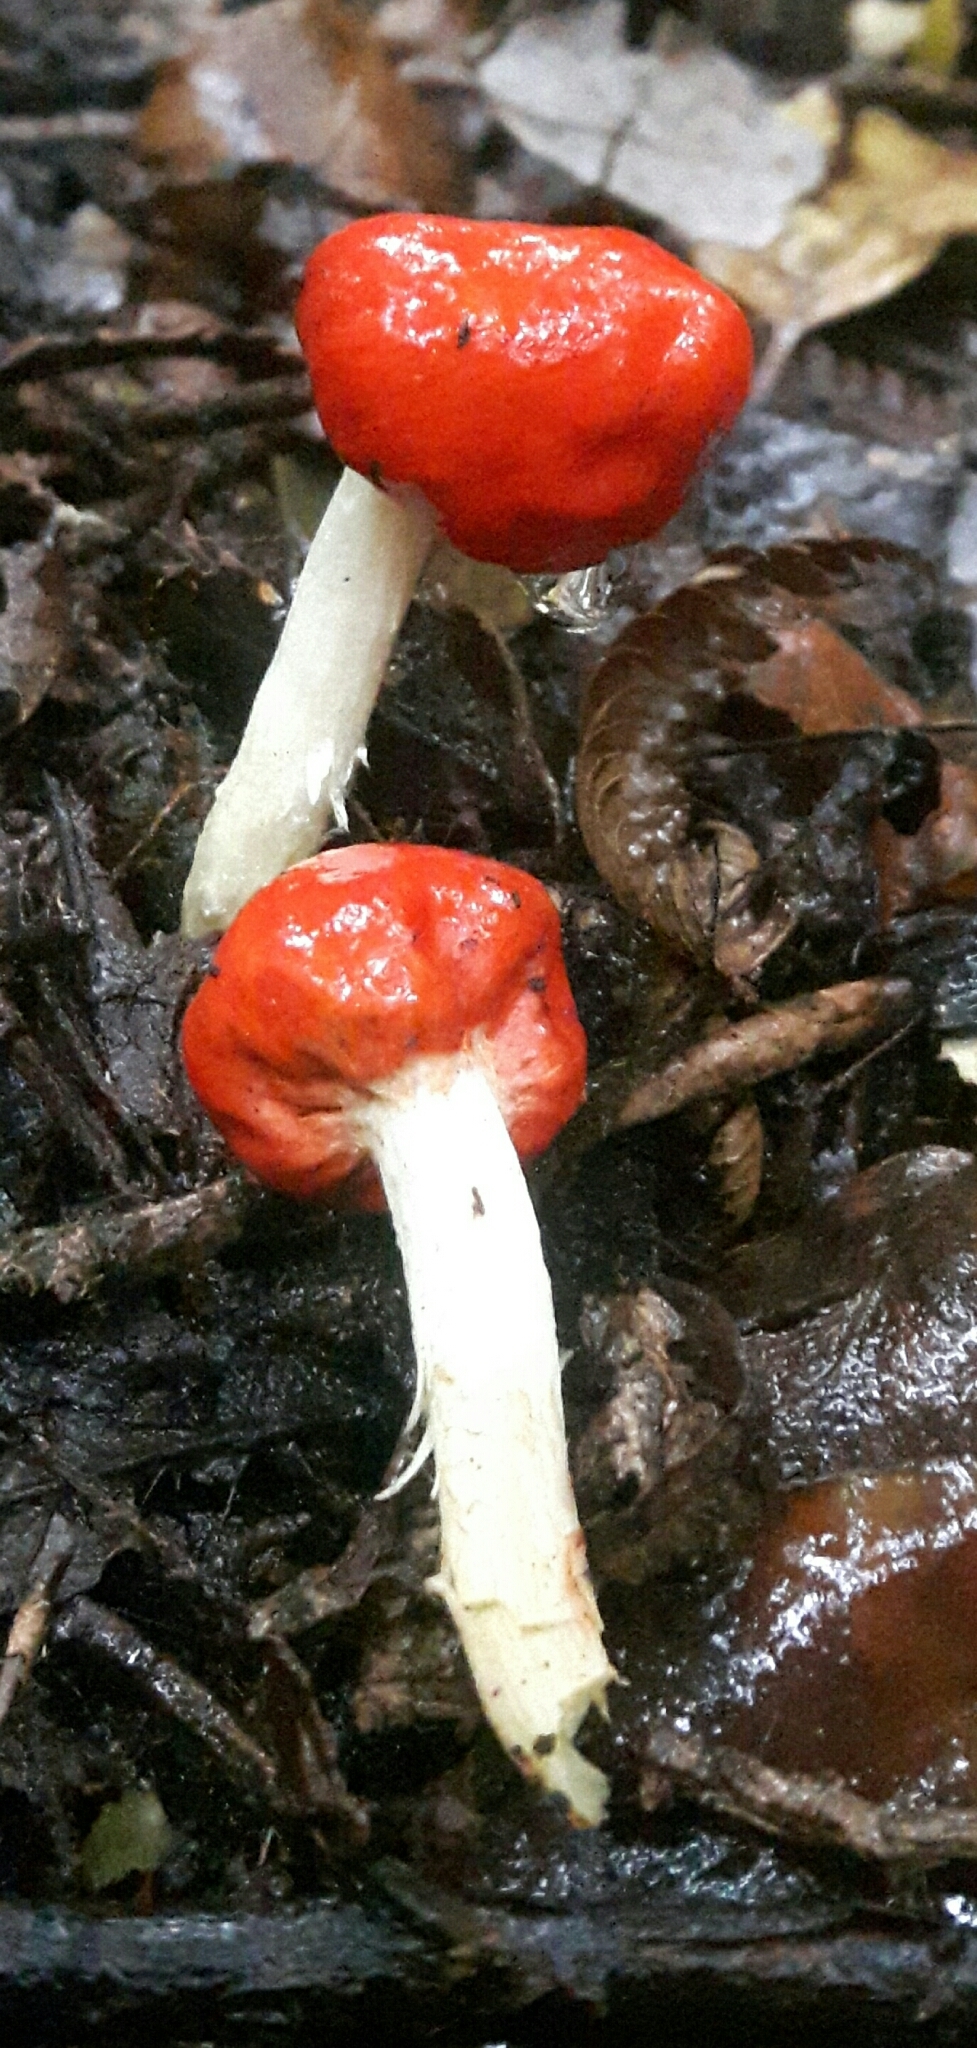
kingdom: Fungi
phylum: Basidiomycota
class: Agaricomycetes
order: Agaricales
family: Strophariaceae
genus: Leratiomyces
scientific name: Leratiomyces erythrocephalus
